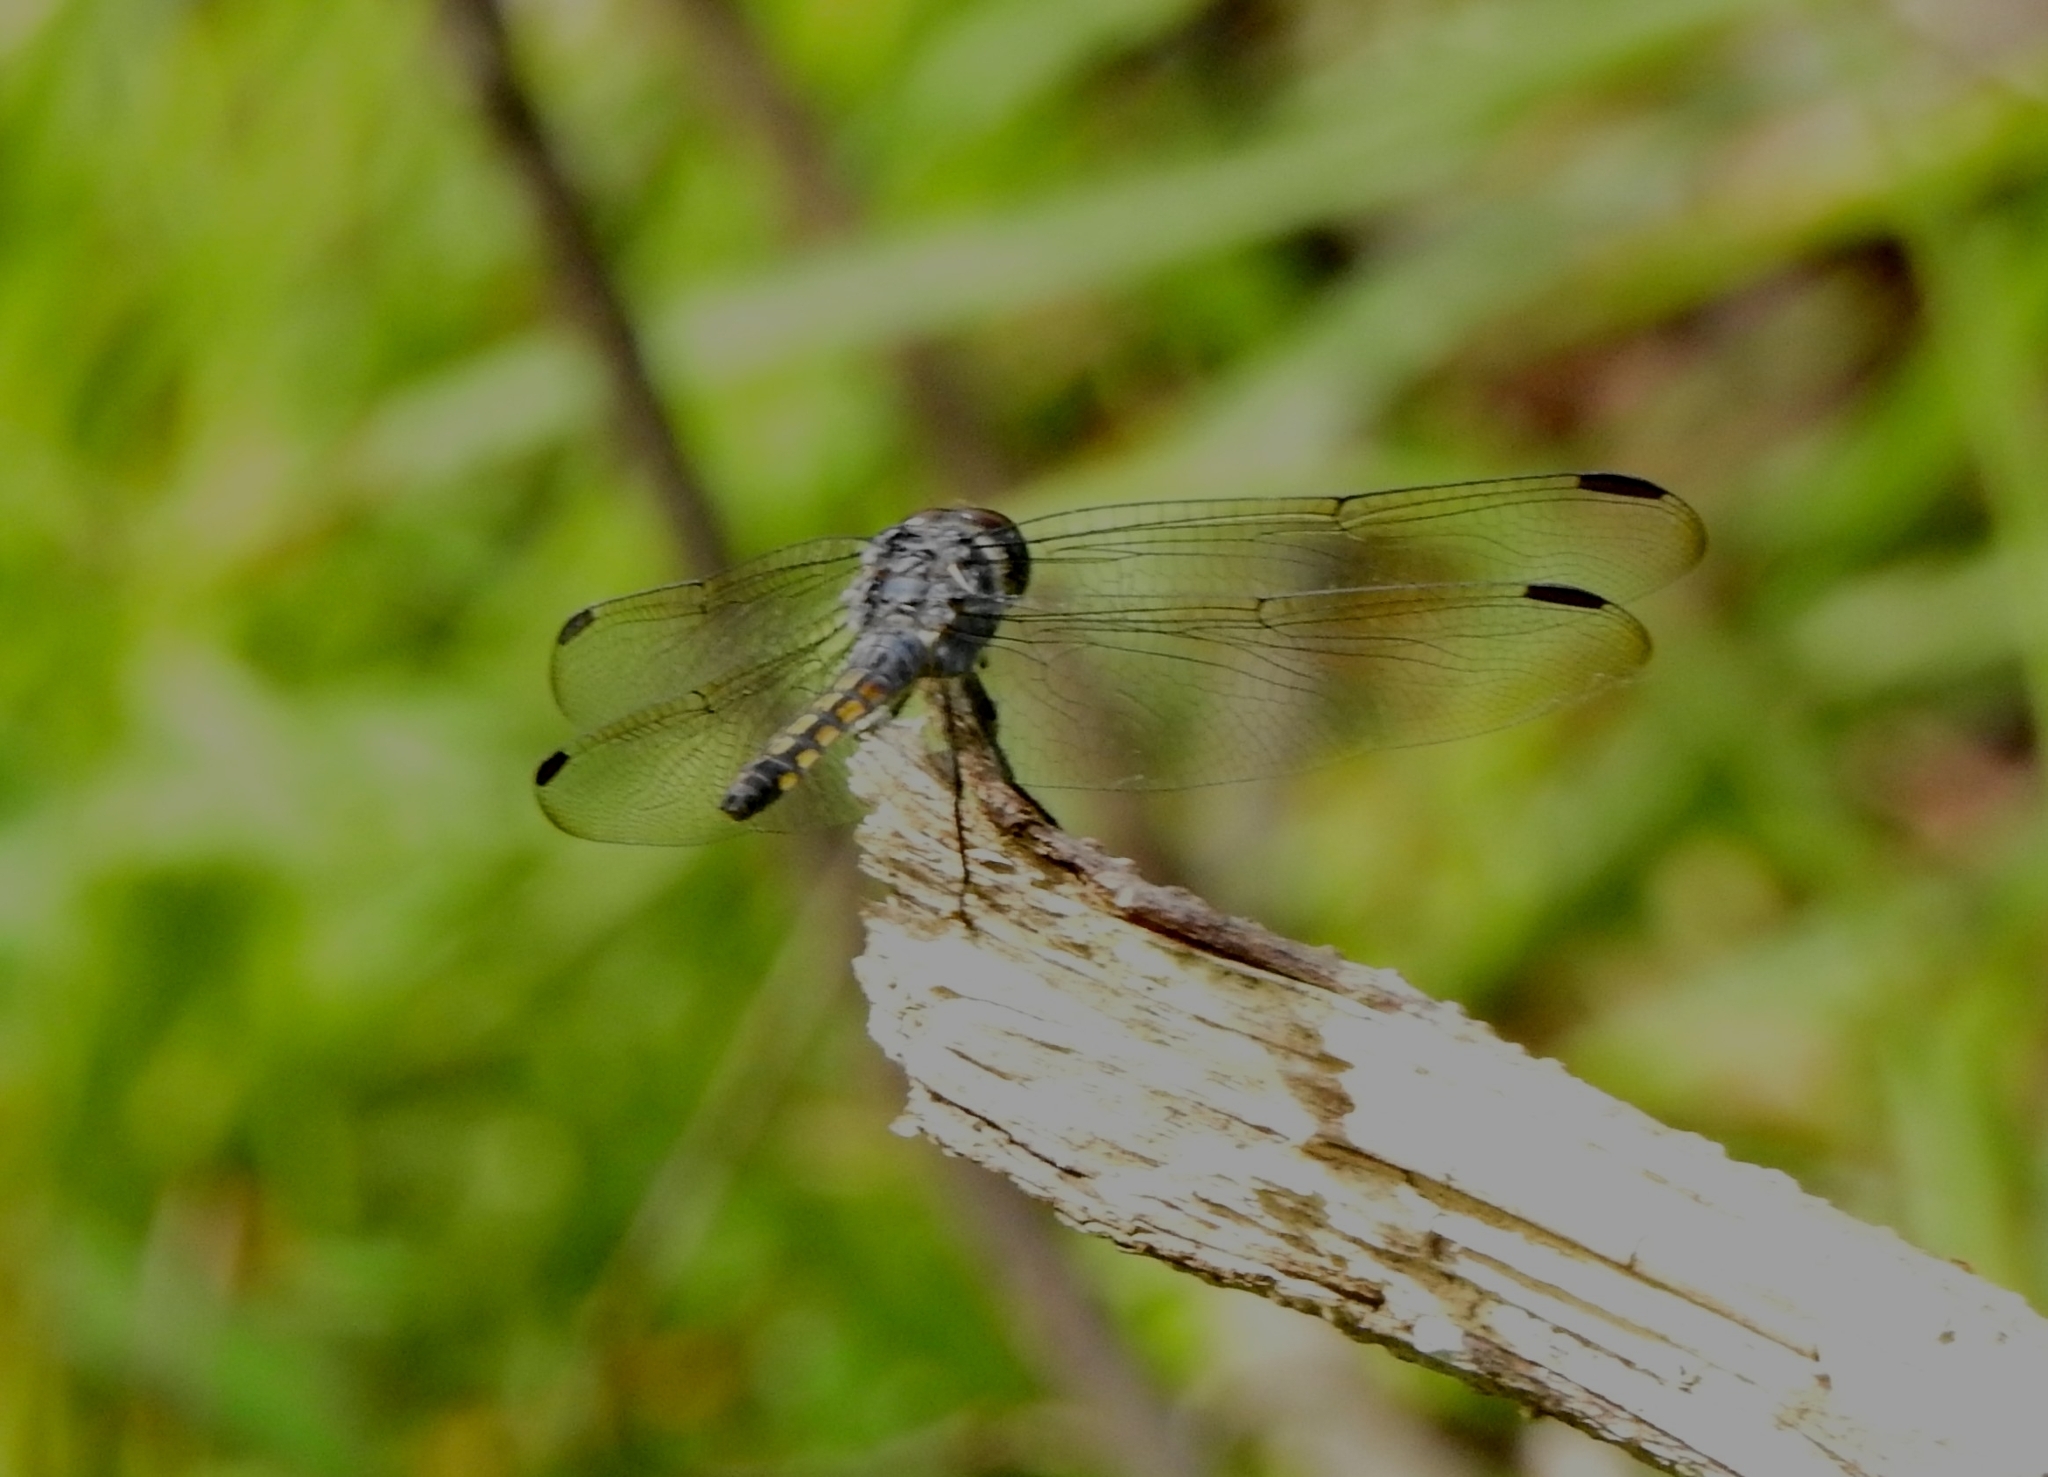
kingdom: Animalia
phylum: Arthropoda
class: Insecta
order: Odonata
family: Libellulidae
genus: Potamarcha
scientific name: Potamarcha congener
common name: Blue chaser
